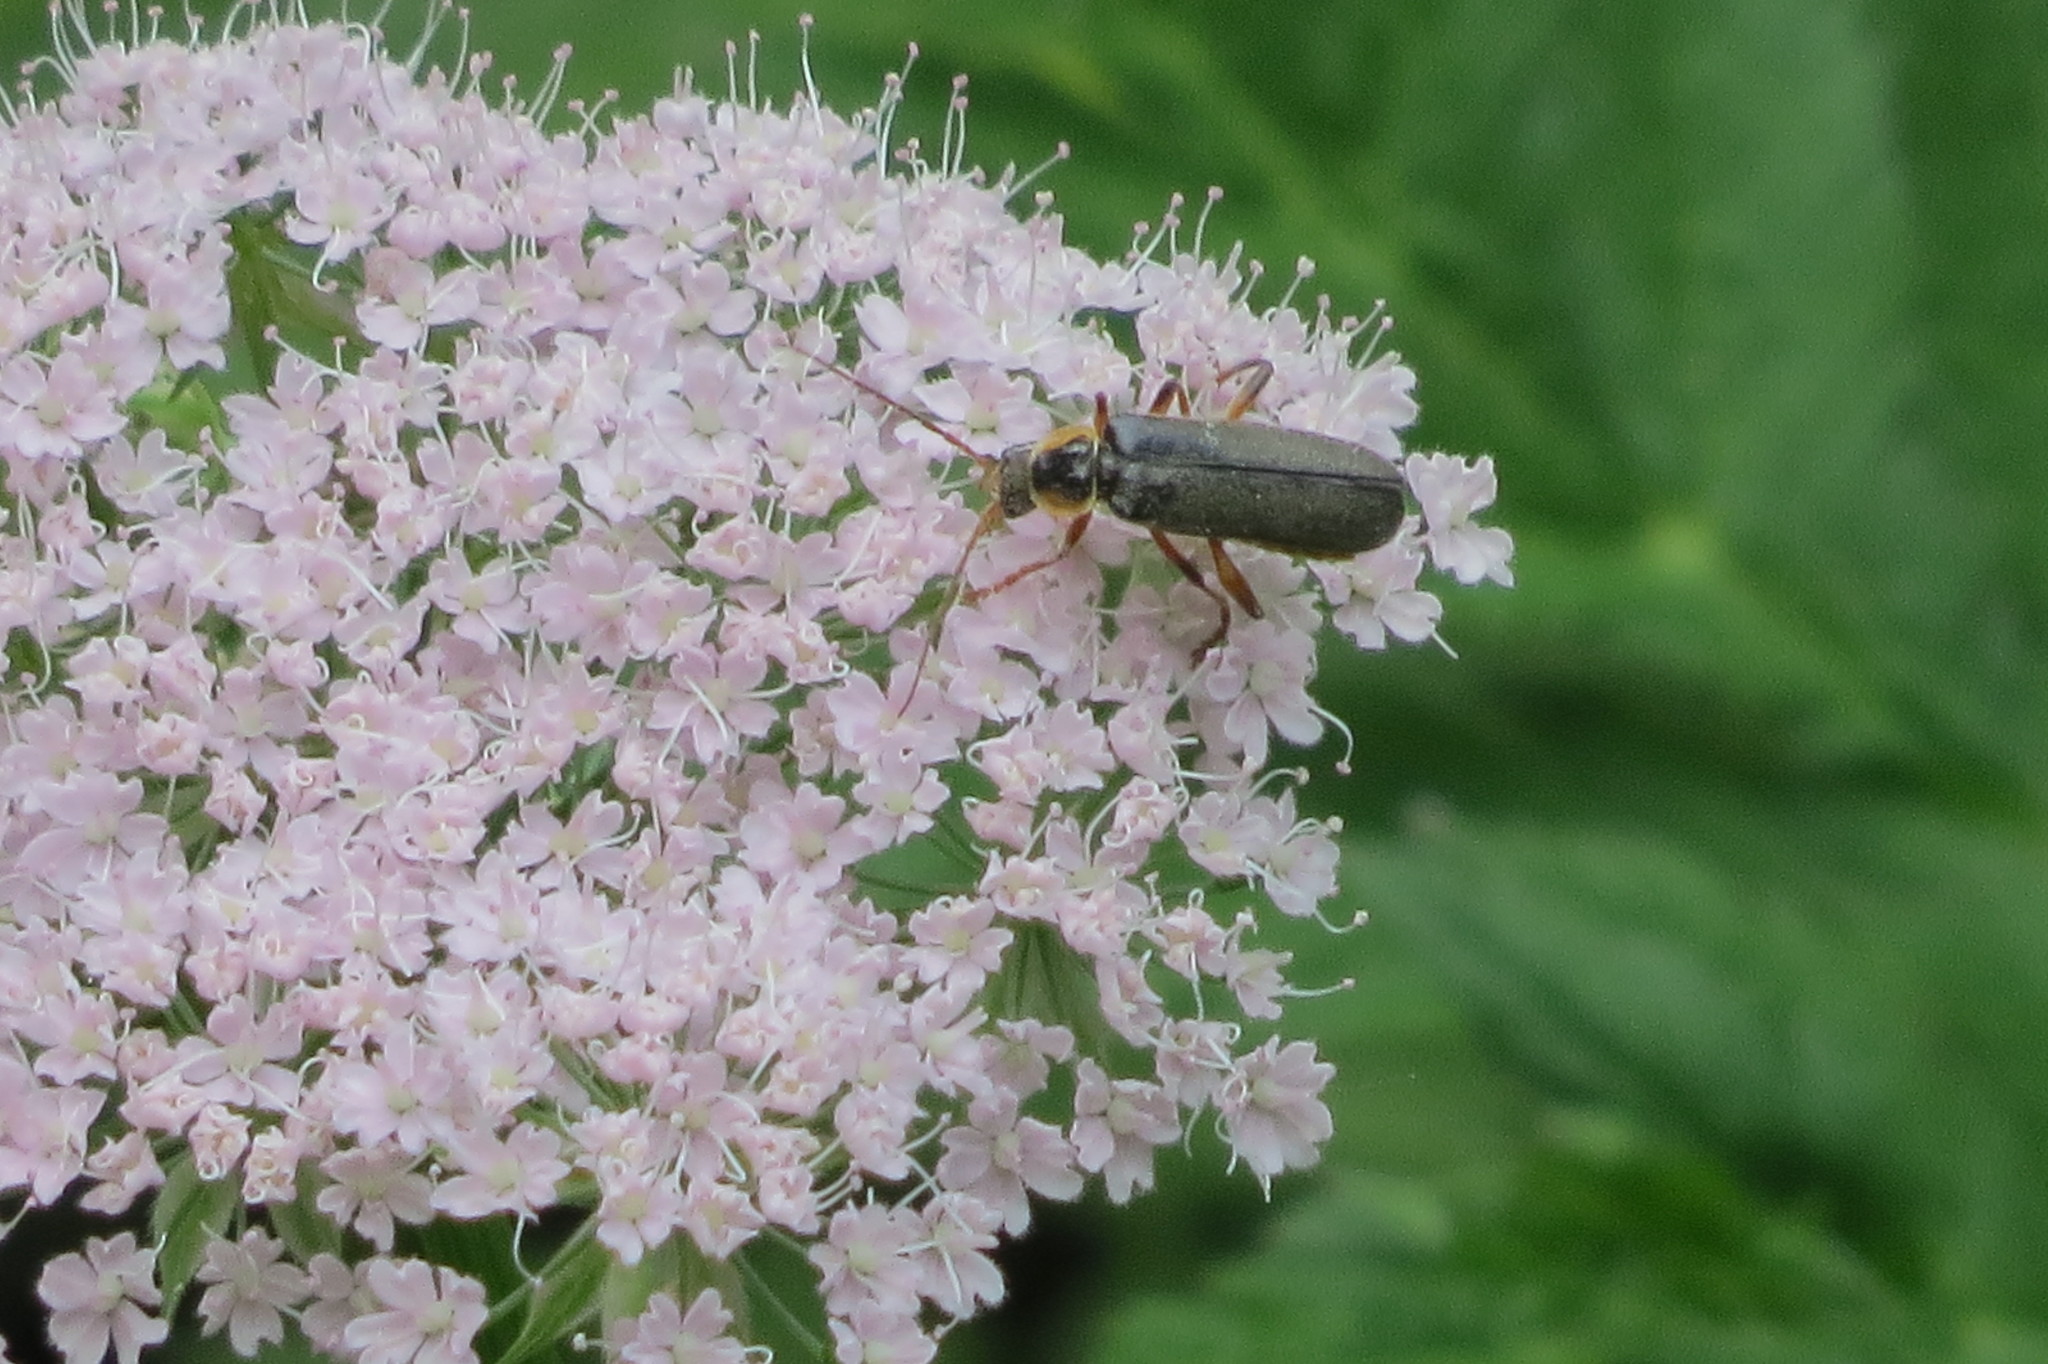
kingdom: Animalia
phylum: Arthropoda
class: Insecta
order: Coleoptera
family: Cantharidae
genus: Cantharis
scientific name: Cantharis nigricans
